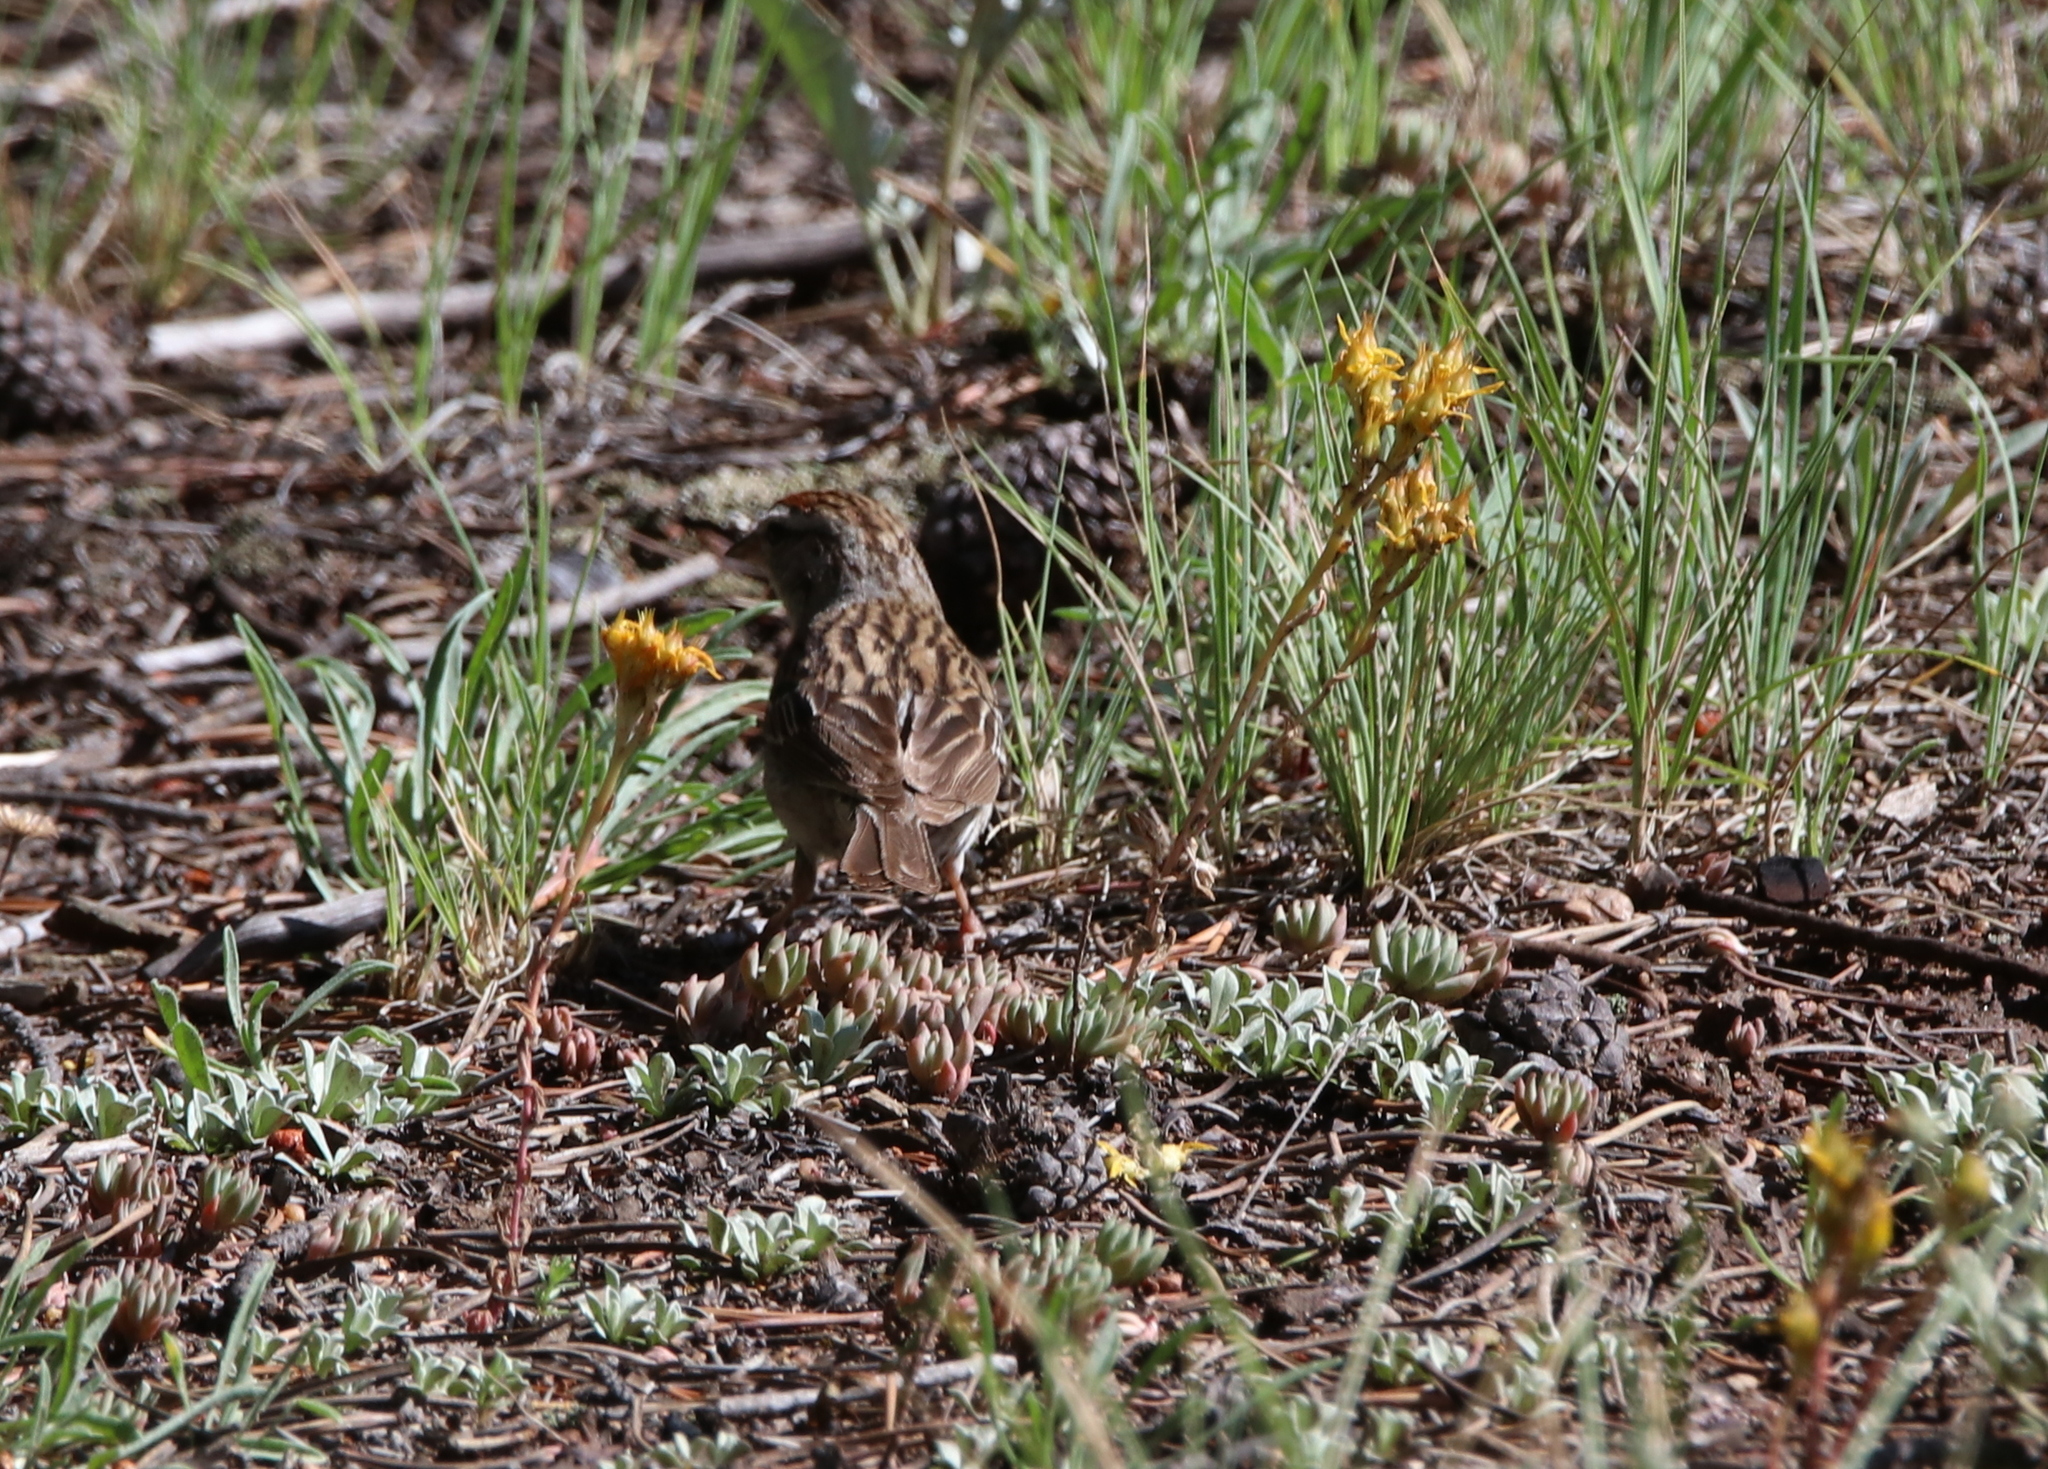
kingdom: Animalia
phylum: Chordata
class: Aves
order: Passeriformes
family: Passerellidae
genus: Spizella
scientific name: Spizella passerina
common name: Chipping sparrow
